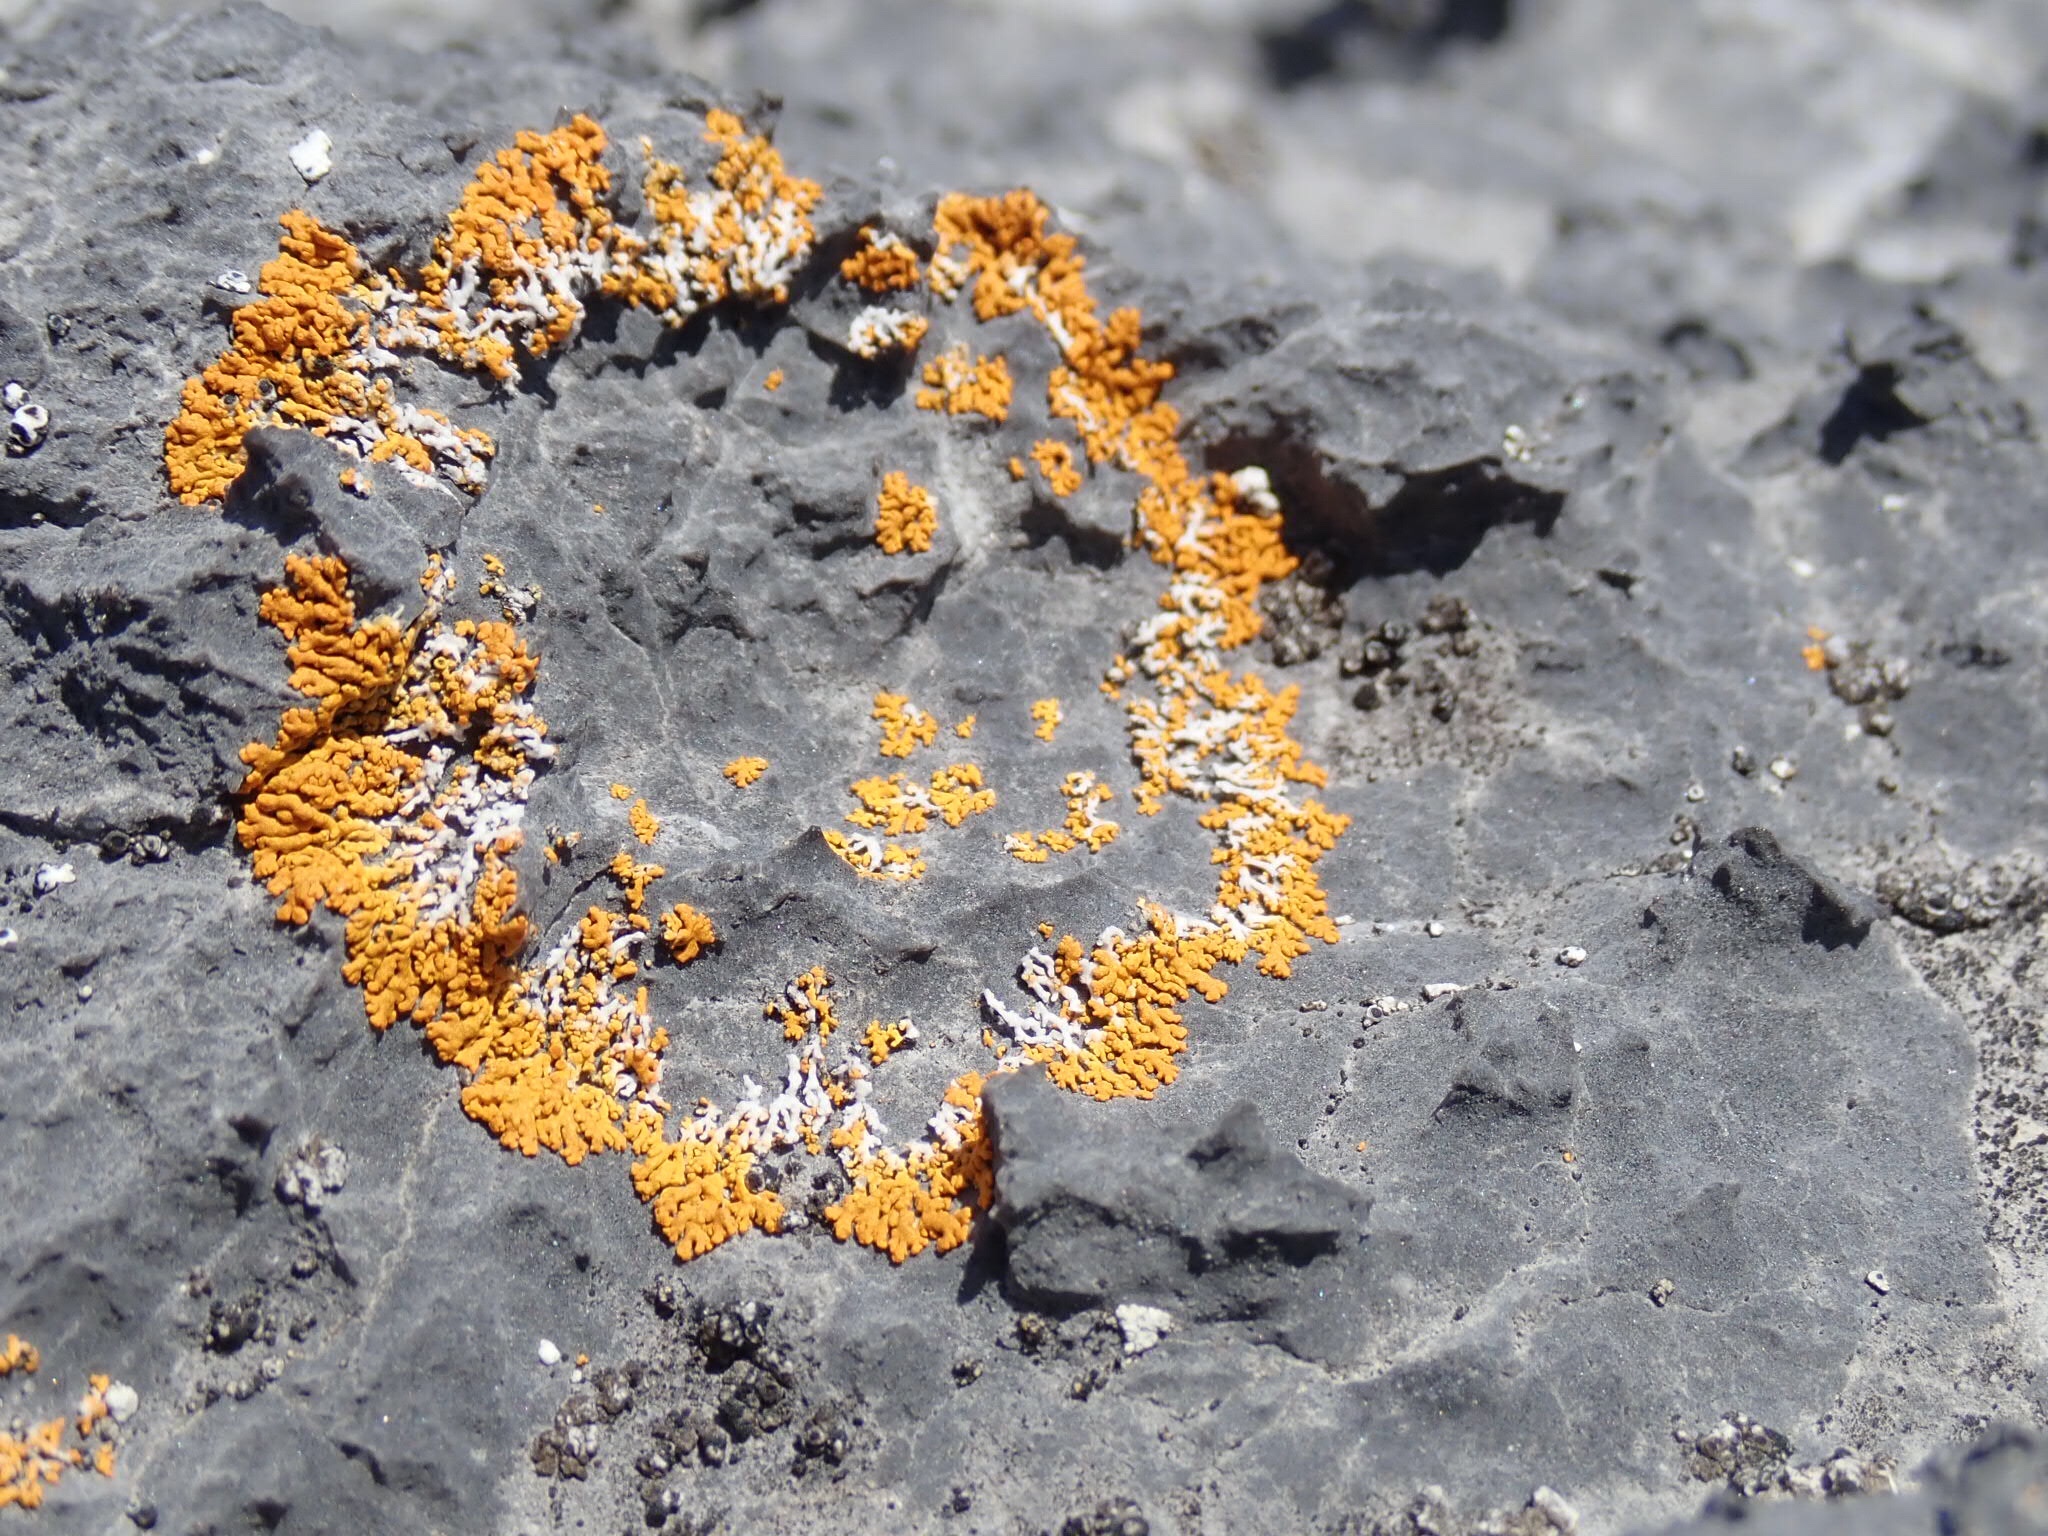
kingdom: Fungi
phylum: Ascomycota
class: Lecanoromycetes
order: Teloschistales
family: Teloschistaceae
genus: Xanthoria
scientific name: Xanthoria elegans
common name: Elegant sunburst lichen
